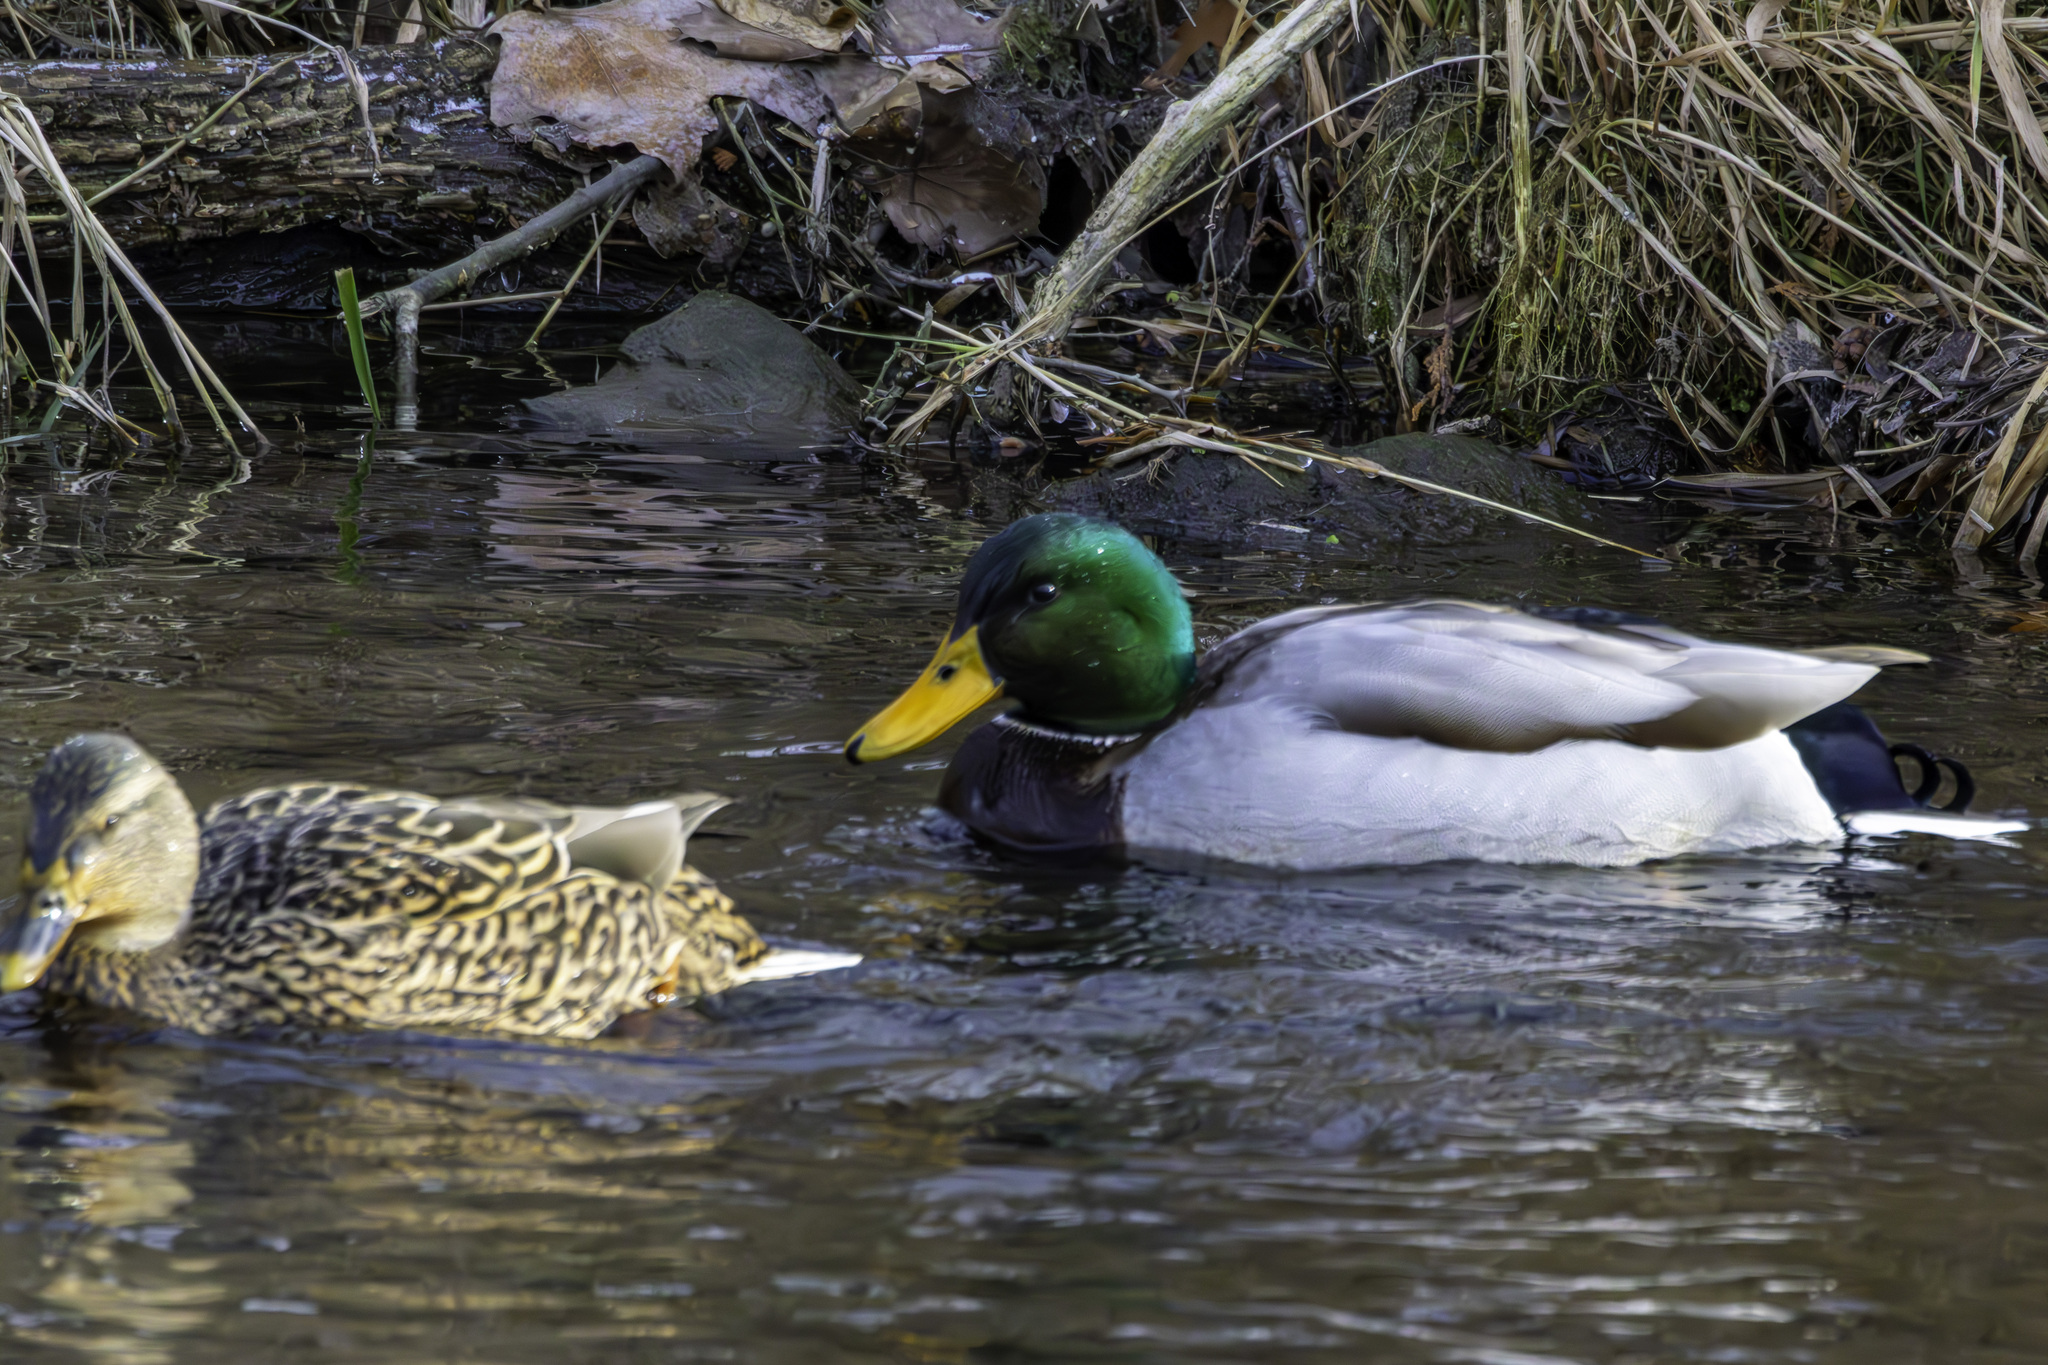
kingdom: Animalia
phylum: Chordata
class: Aves
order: Anseriformes
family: Anatidae
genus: Anas
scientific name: Anas platyrhynchos
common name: Mallard
